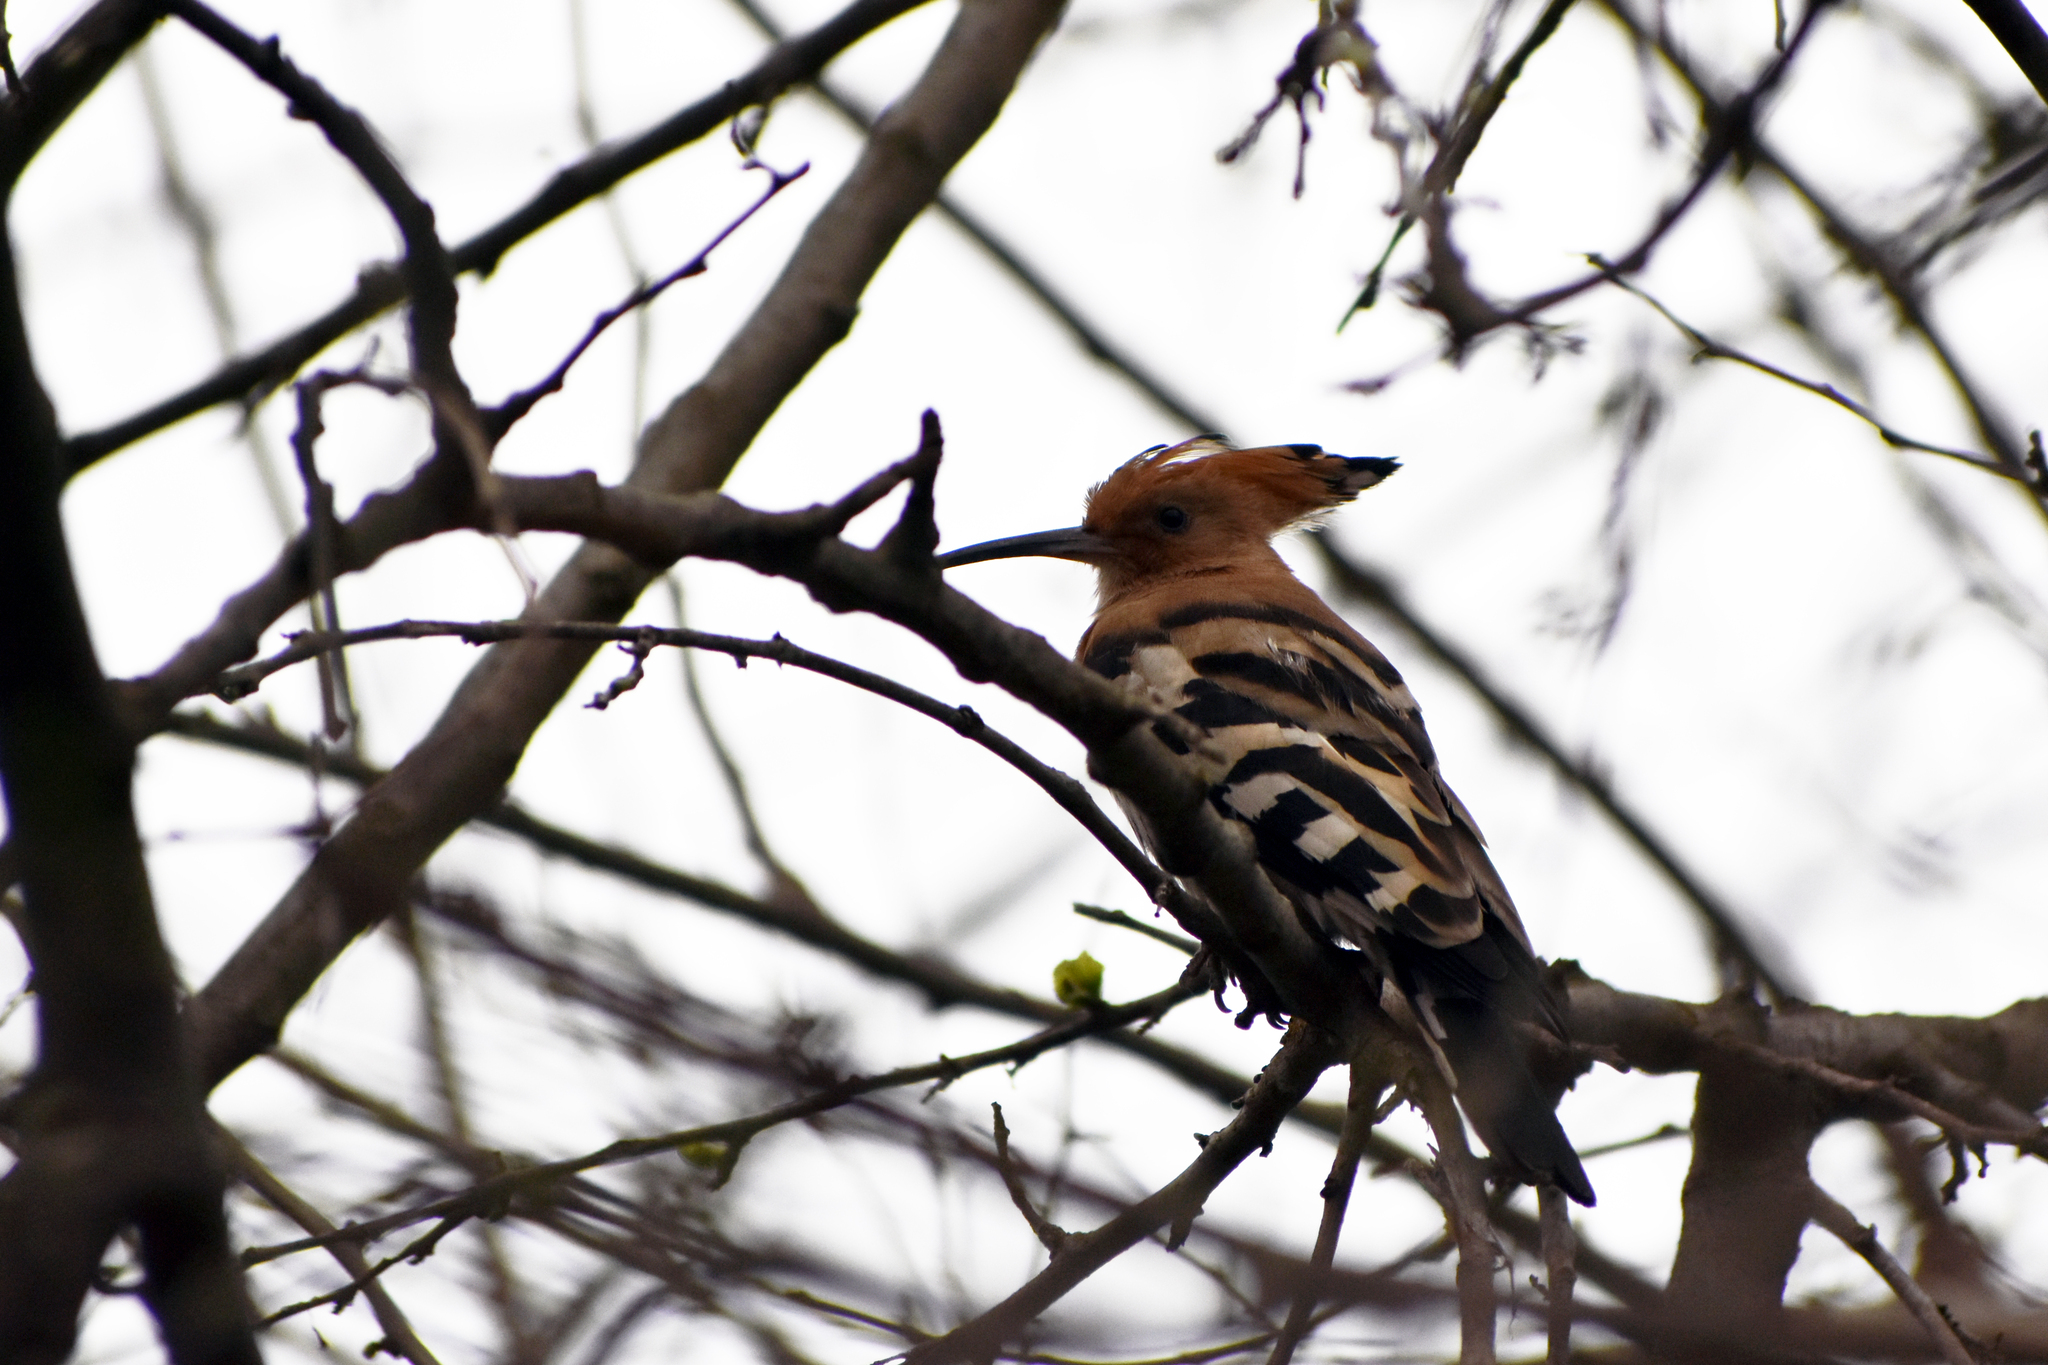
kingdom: Animalia
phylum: Chordata
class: Aves
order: Bucerotiformes
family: Upupidae
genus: Upupa
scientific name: Upupa epops
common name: Eurasian hoopoe
